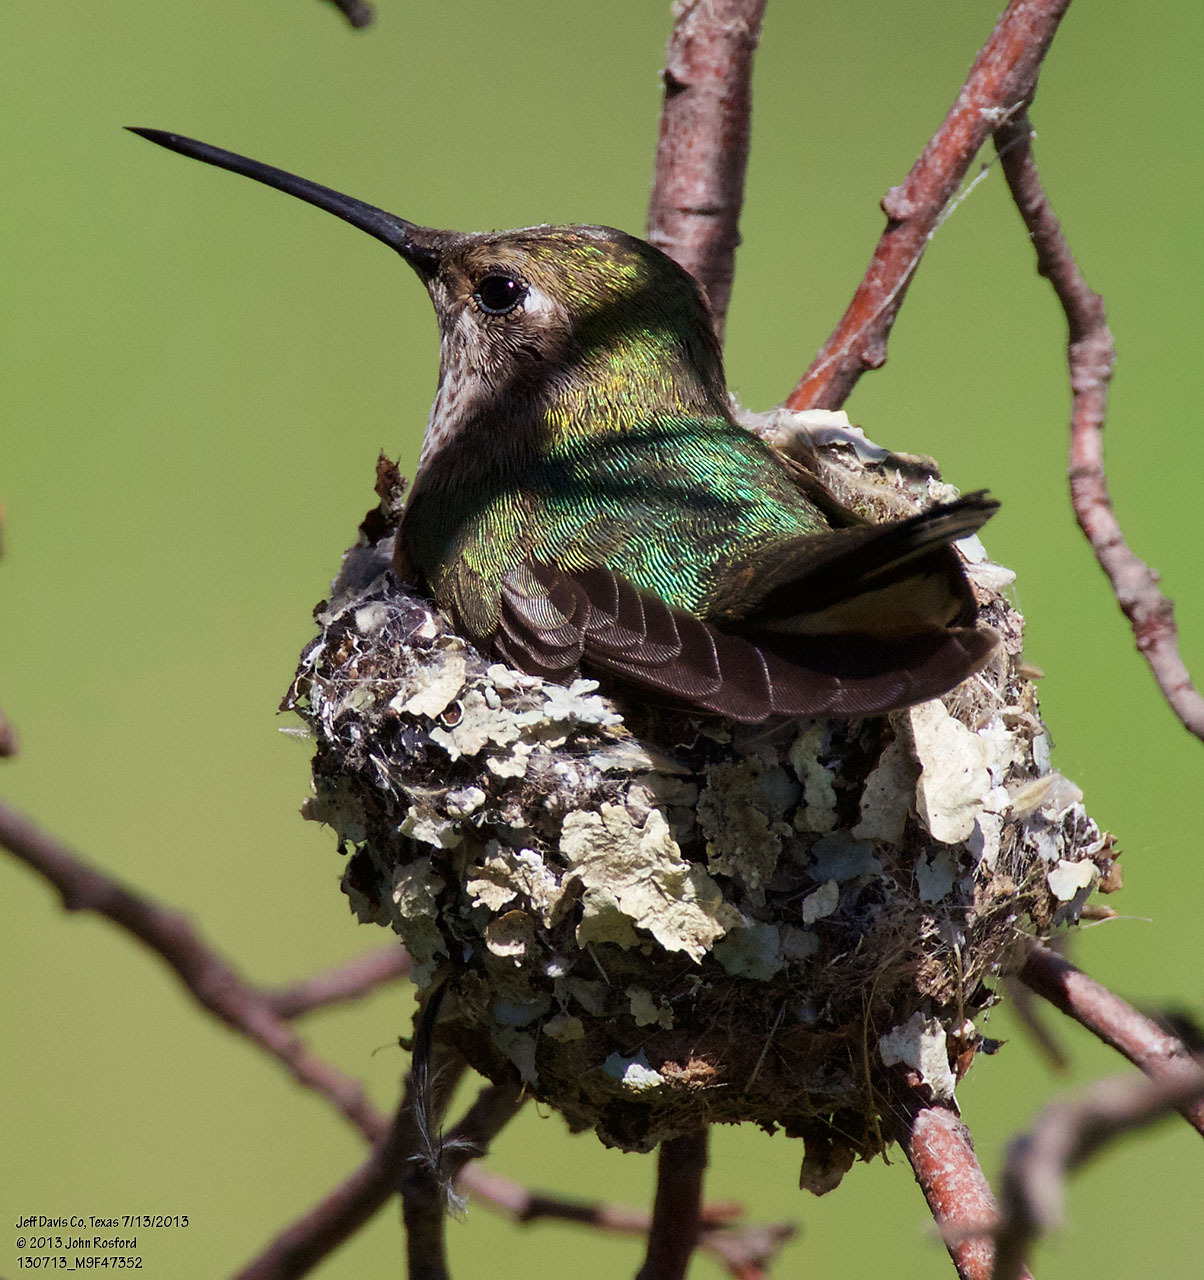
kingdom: Animalia
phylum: Chordata
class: Aves
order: Apodiformes
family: Trochilidae
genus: Selasphorus
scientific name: Selasphorus platycercus
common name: Broad-tailed hummingbird
